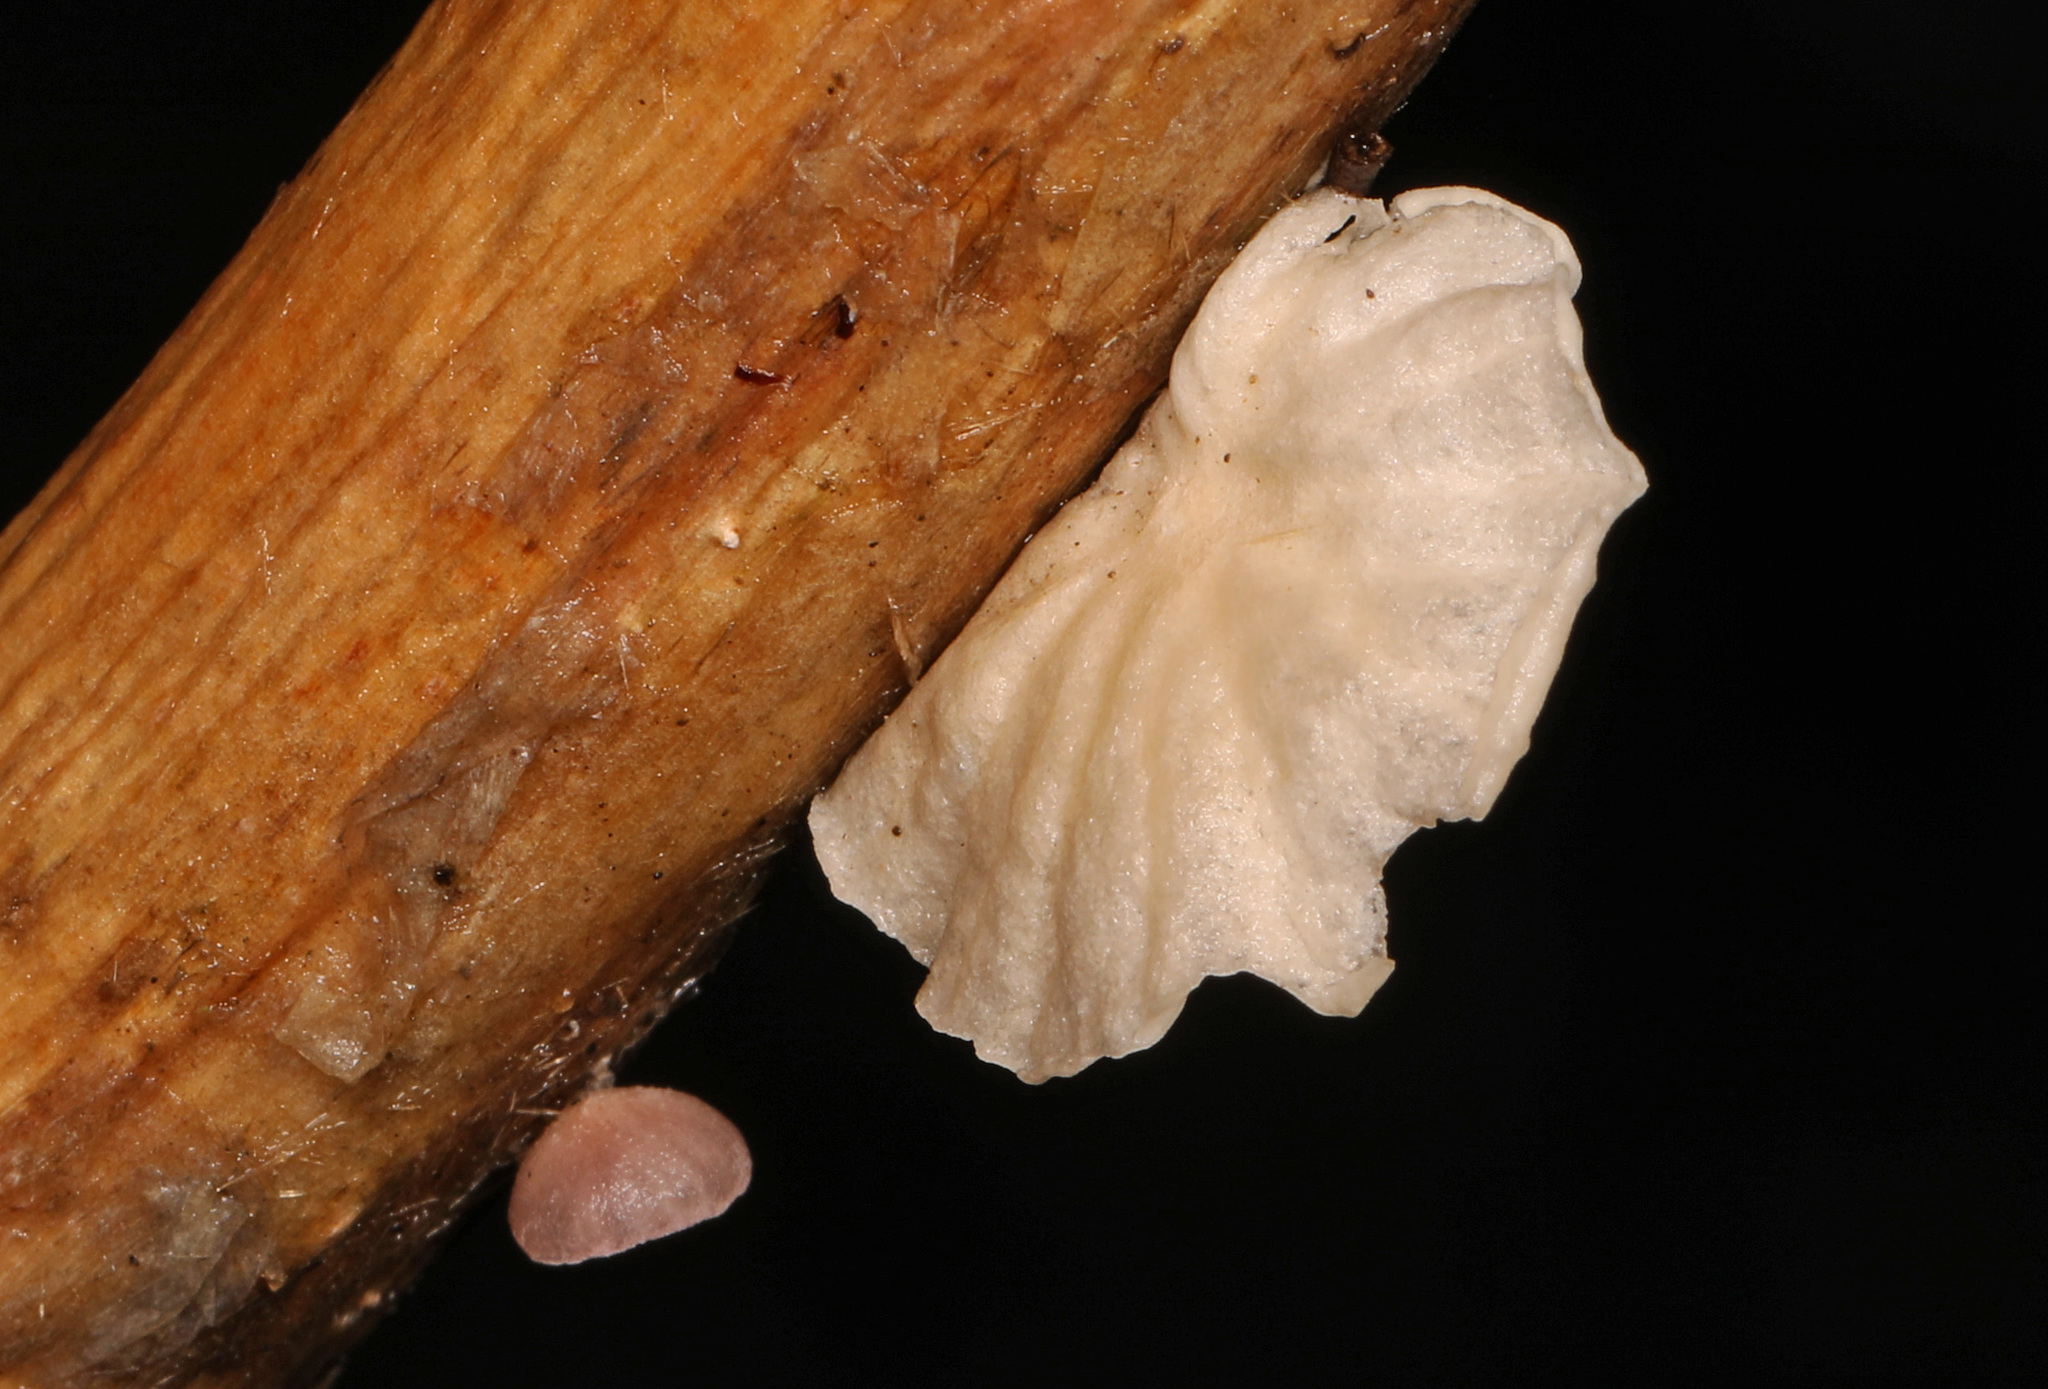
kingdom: Fungi
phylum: Basidiomycota
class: Agaricomycetes
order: Agaricales
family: Omphalotaceae
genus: Marasmiellus
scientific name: Marasmiellus candidus
